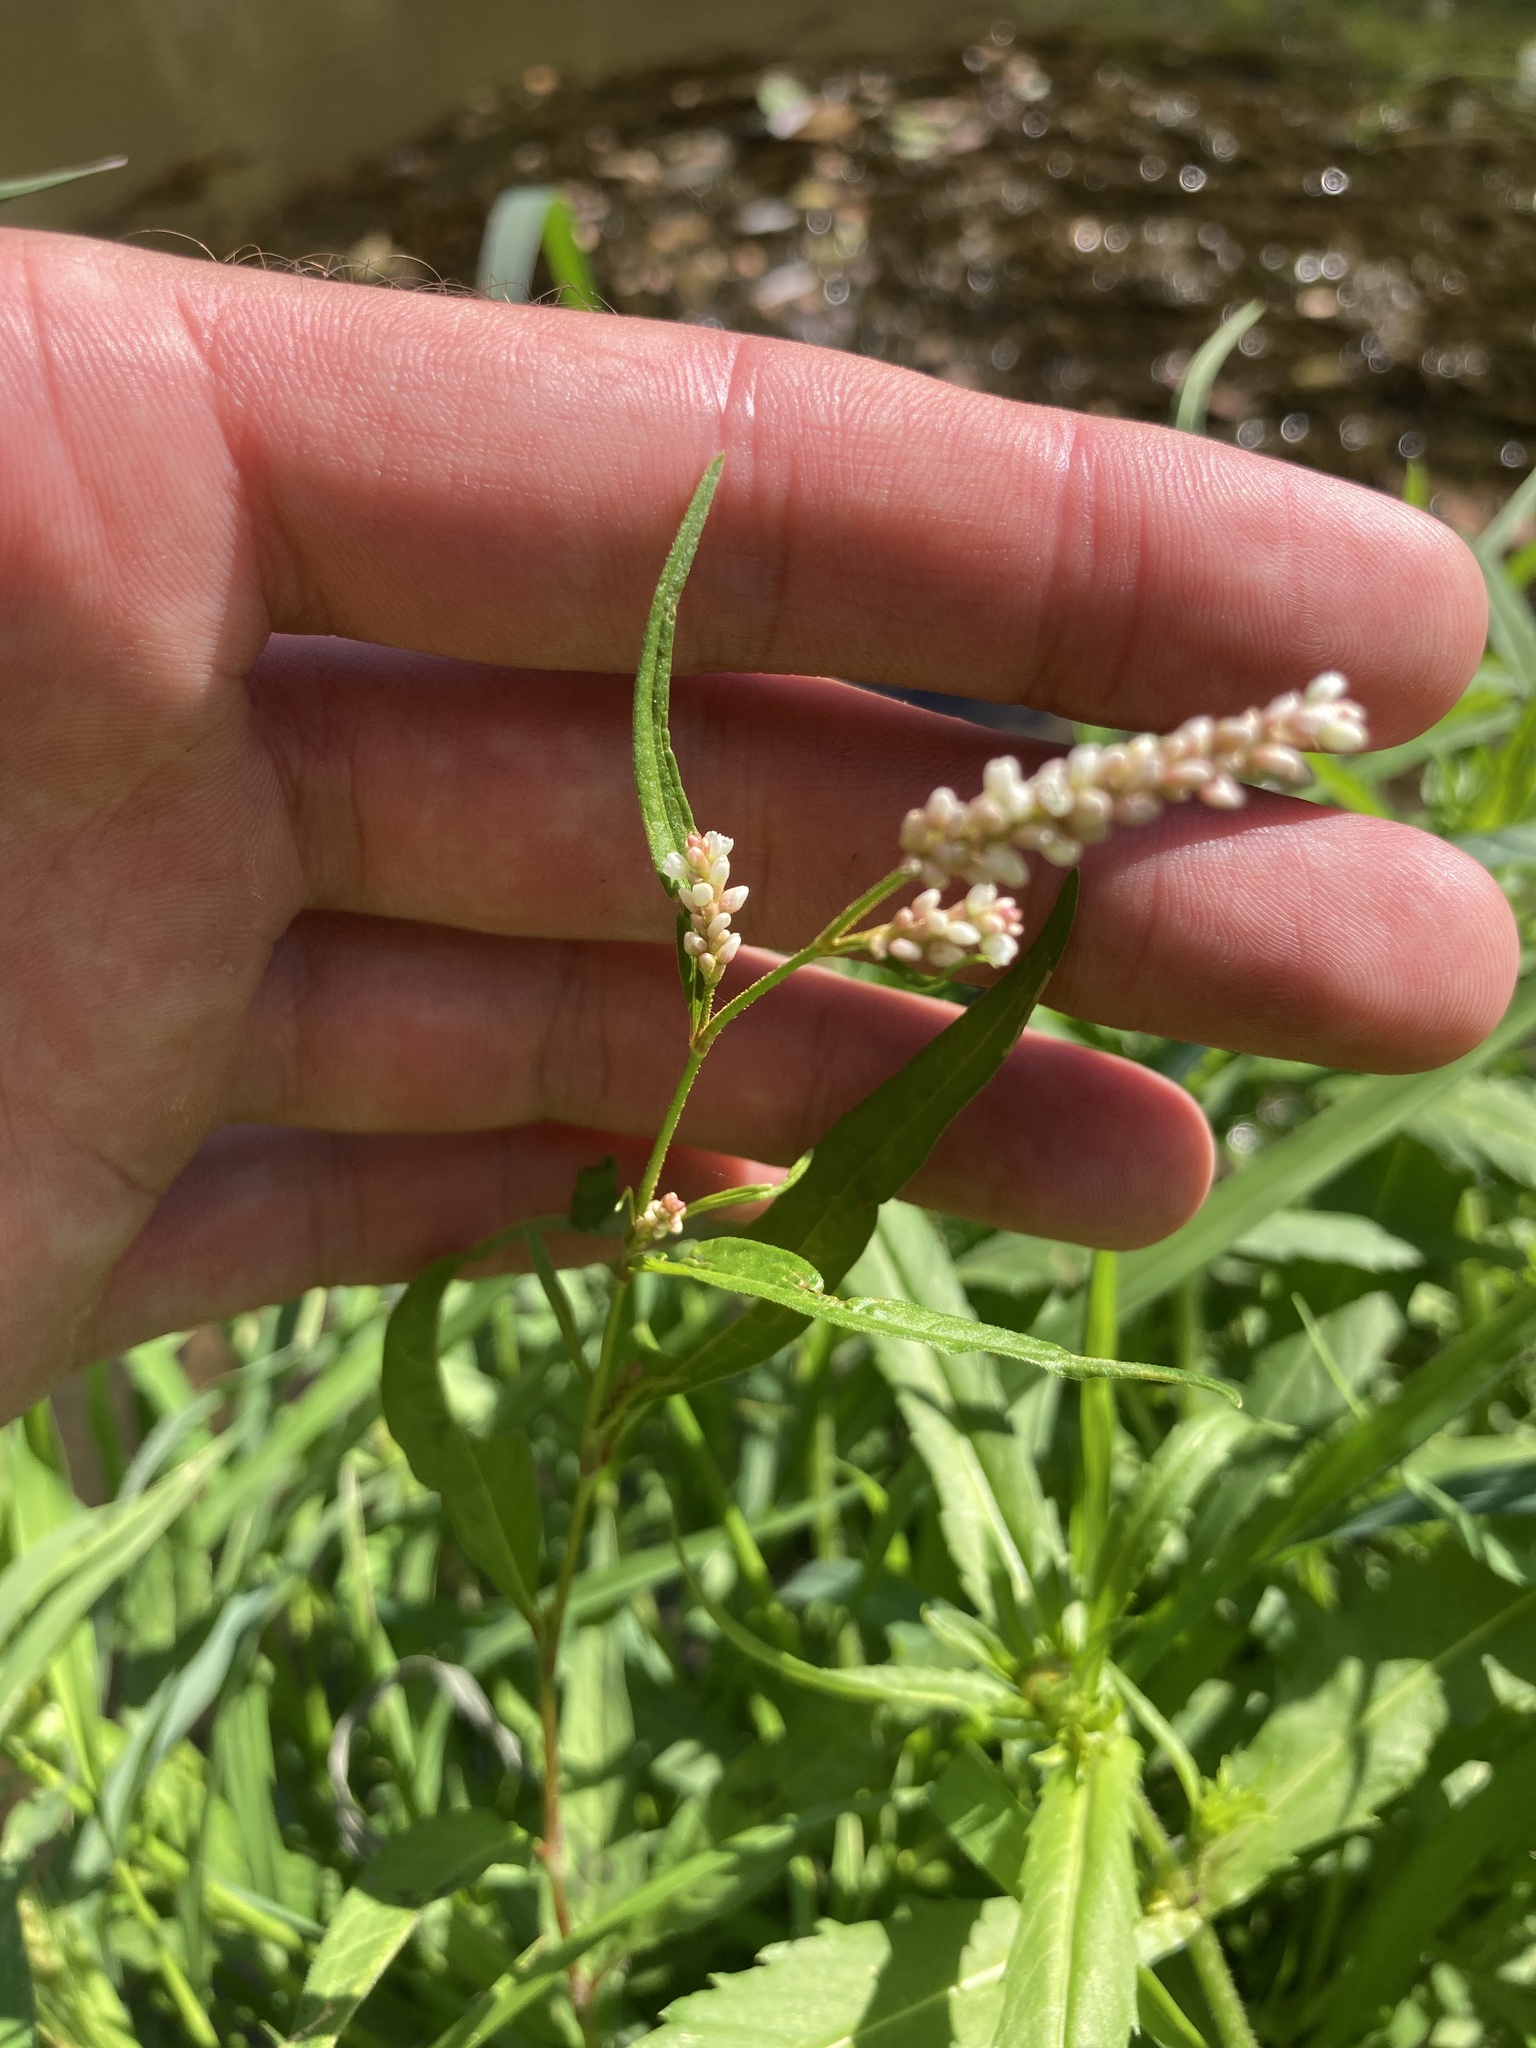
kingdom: Plantae
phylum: Tracheophyta
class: Magnoliopsida
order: Caryophyllales
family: Polygonaceae
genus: Persicaria
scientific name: Persicaria lapathifolia
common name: Curlytop knotweed
